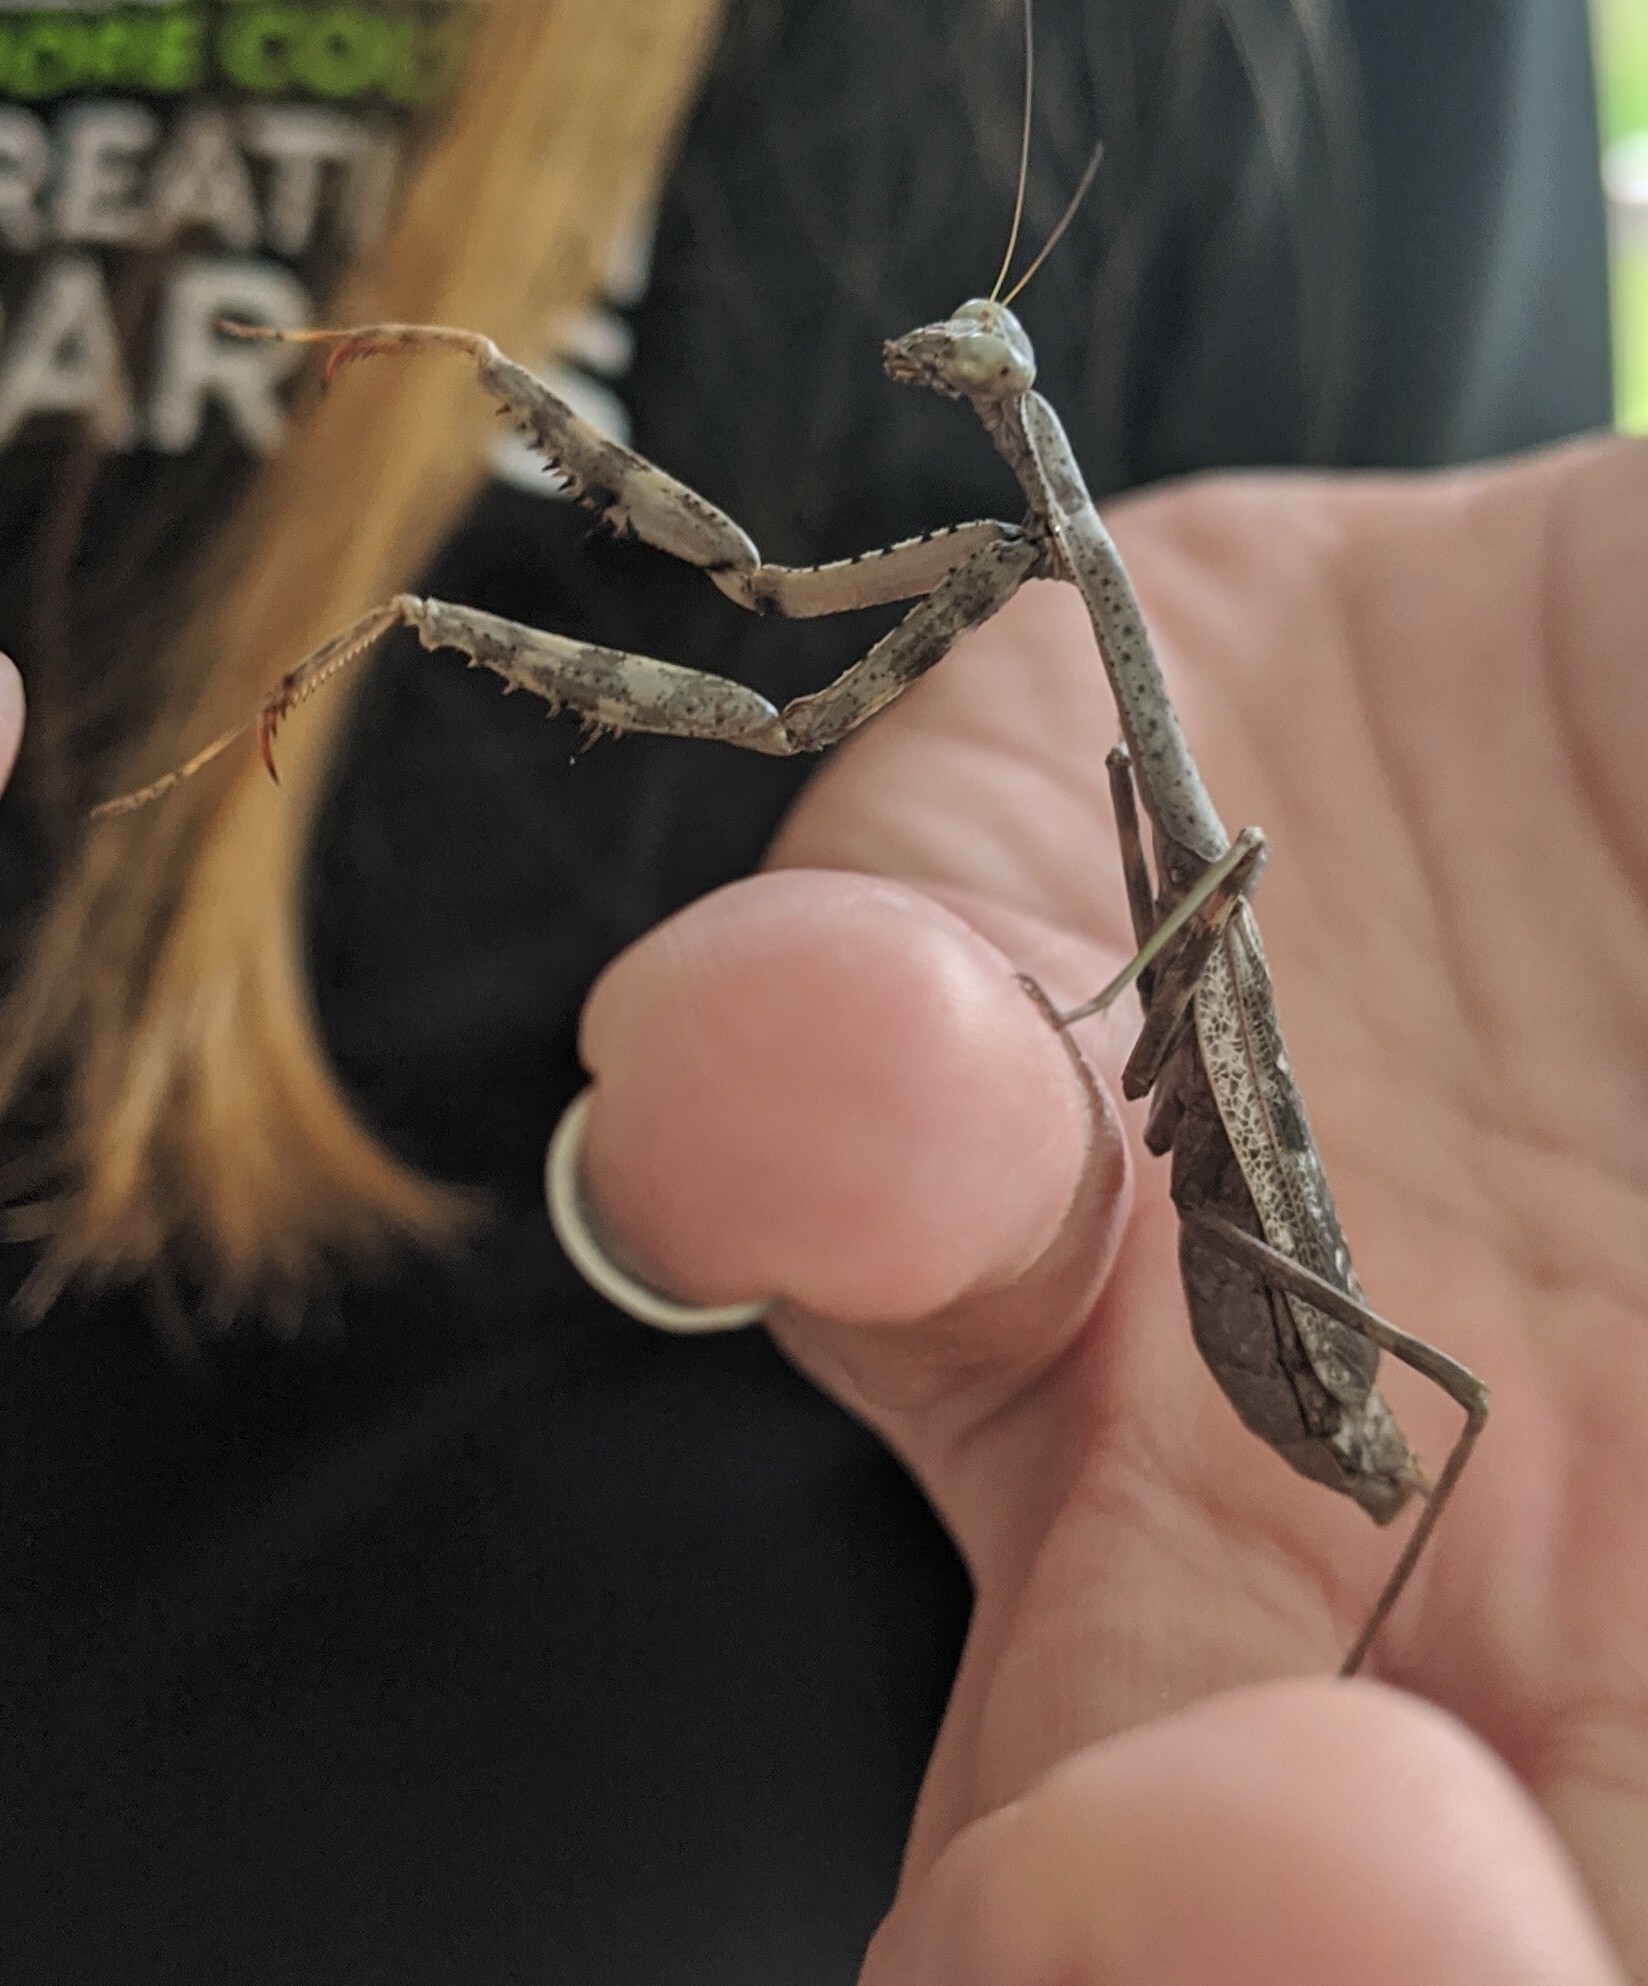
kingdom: Animalia
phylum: Arthropoda
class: Insecta
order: Mantodea
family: Mantidae
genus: Stagmomantis
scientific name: Stagmomantis carolina
